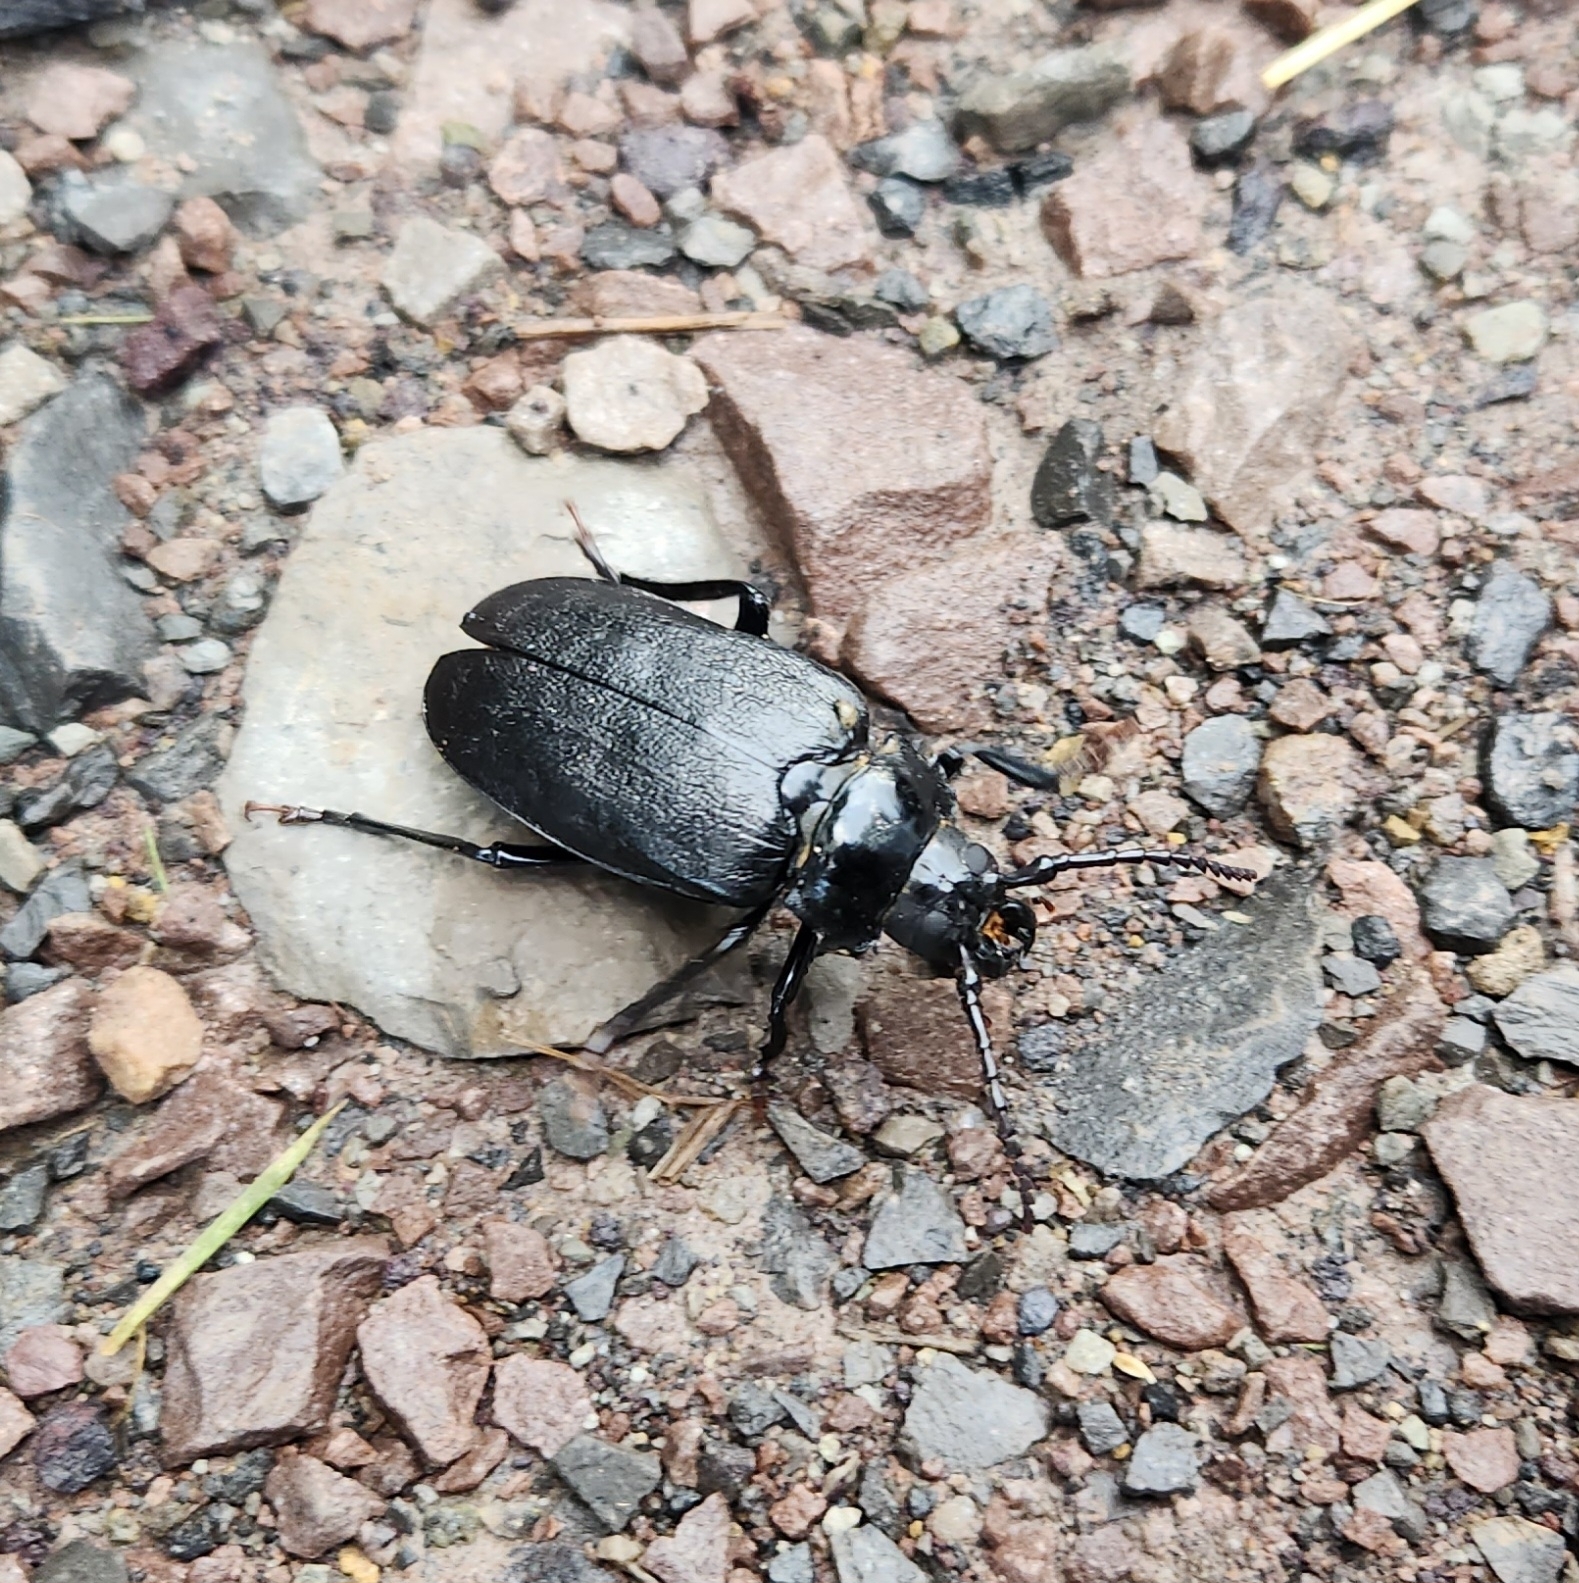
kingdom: Animalia
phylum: Arthropoda
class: Insecta
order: Coleoptera
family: Cerambycidae
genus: Prionus
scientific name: Prionus laticollis
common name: Broad necked prionus
